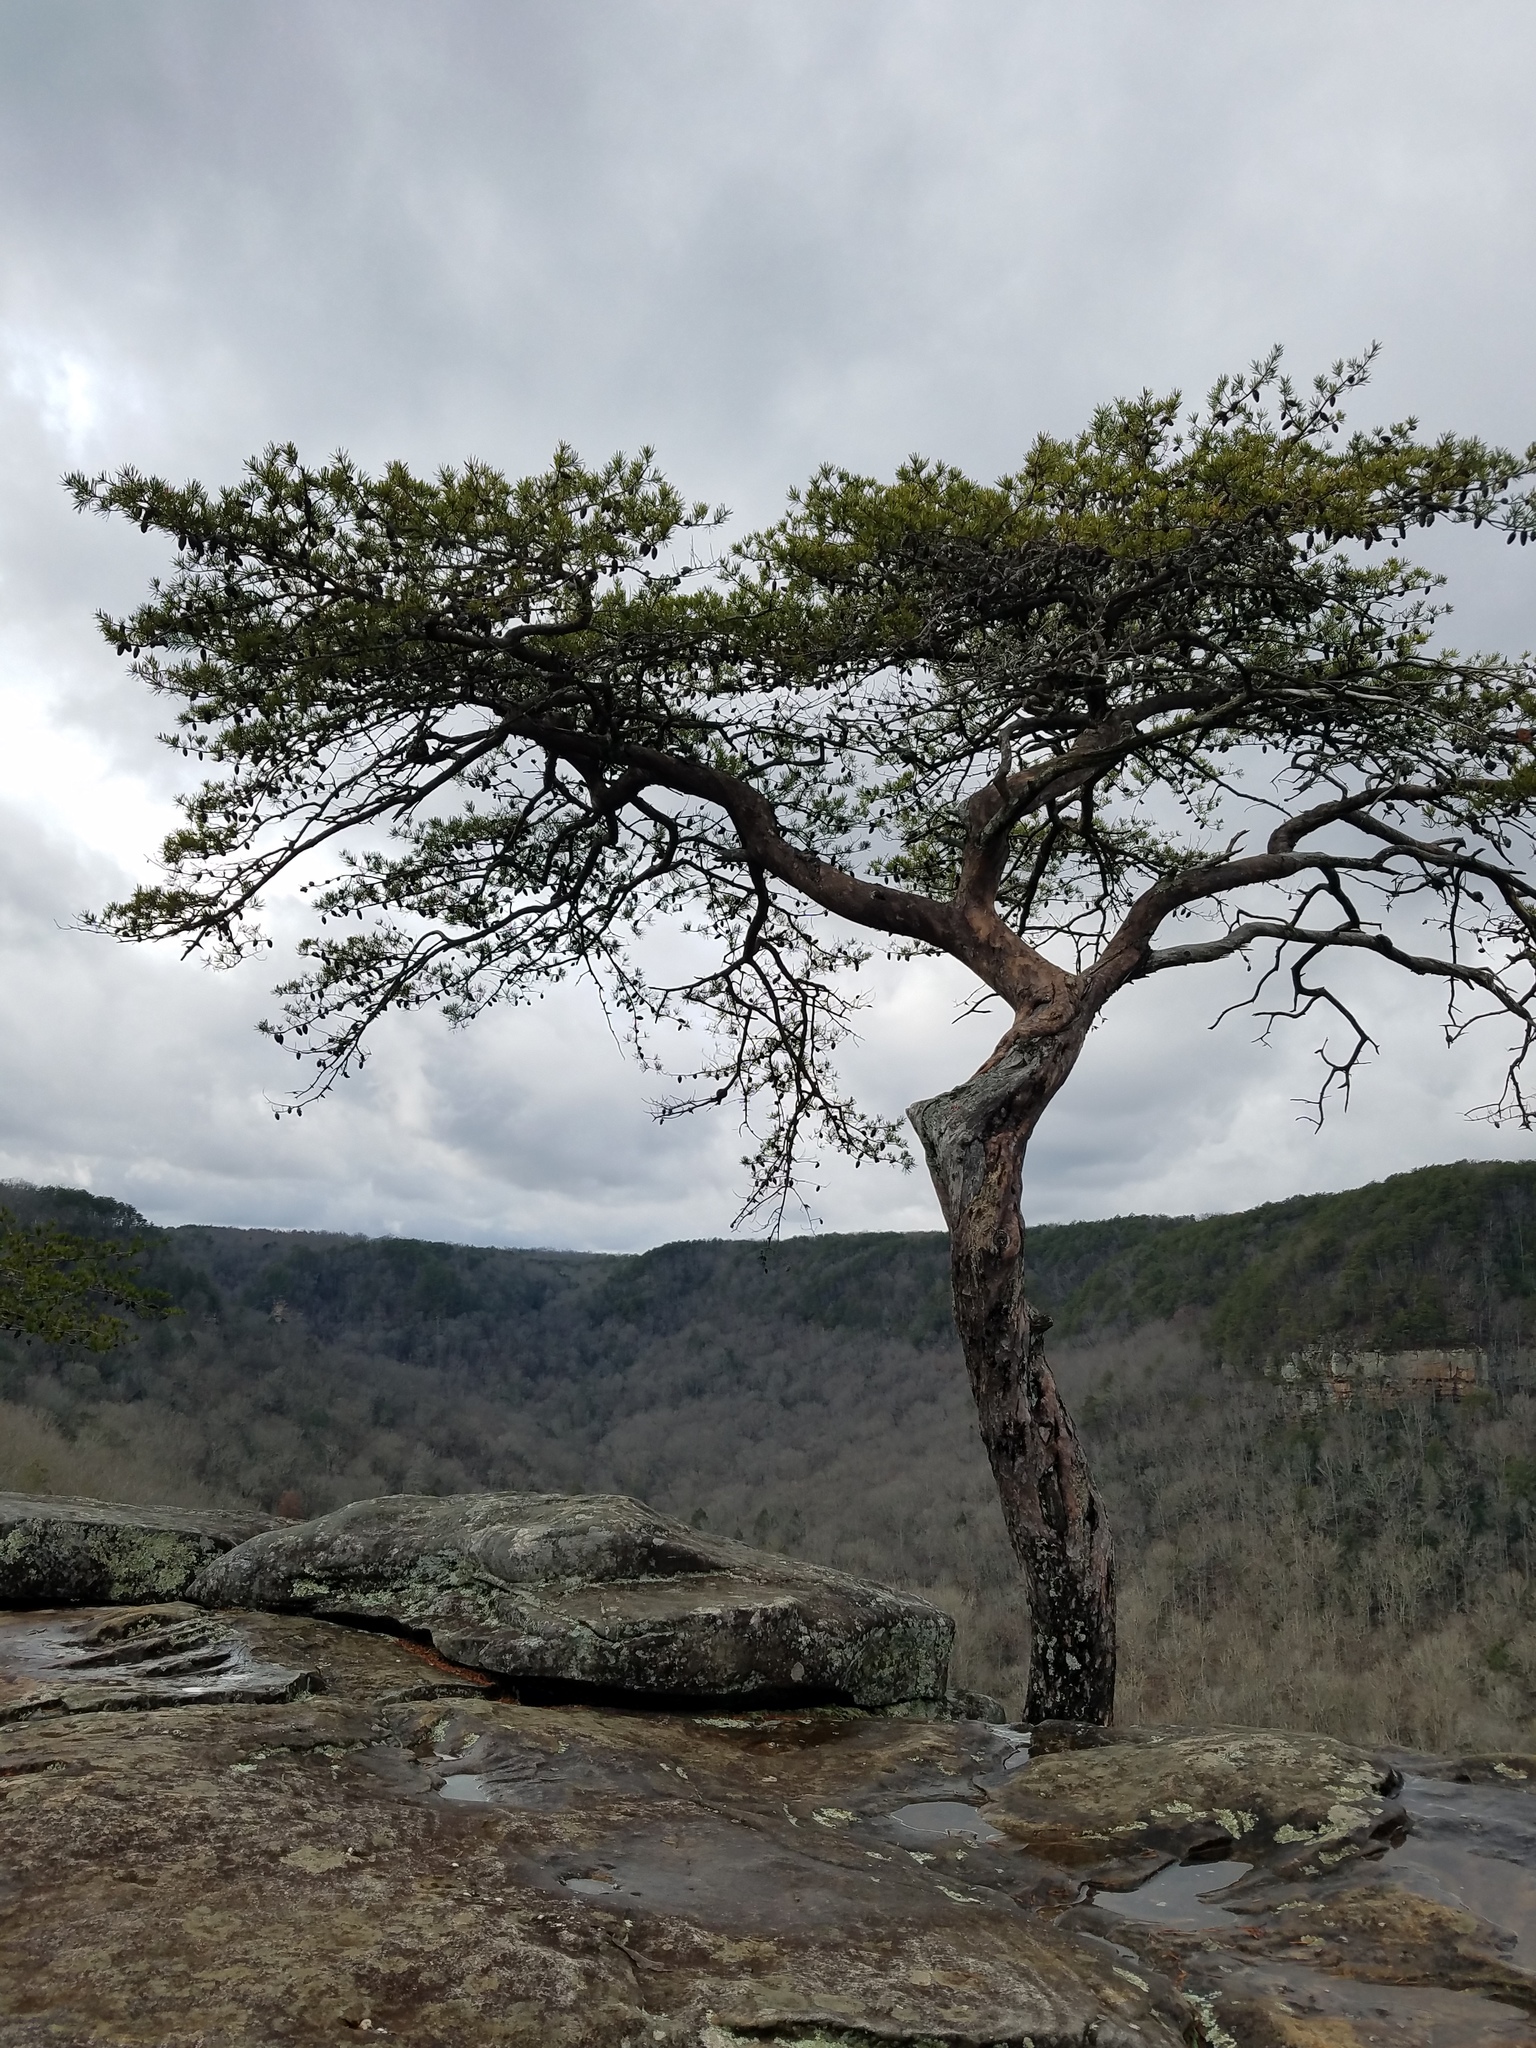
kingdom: Plantae
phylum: Tracheophyta
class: Pinopsida
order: Pinales
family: Pinaceae
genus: Pinus
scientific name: Pinus virginiana
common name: Scrub pine
